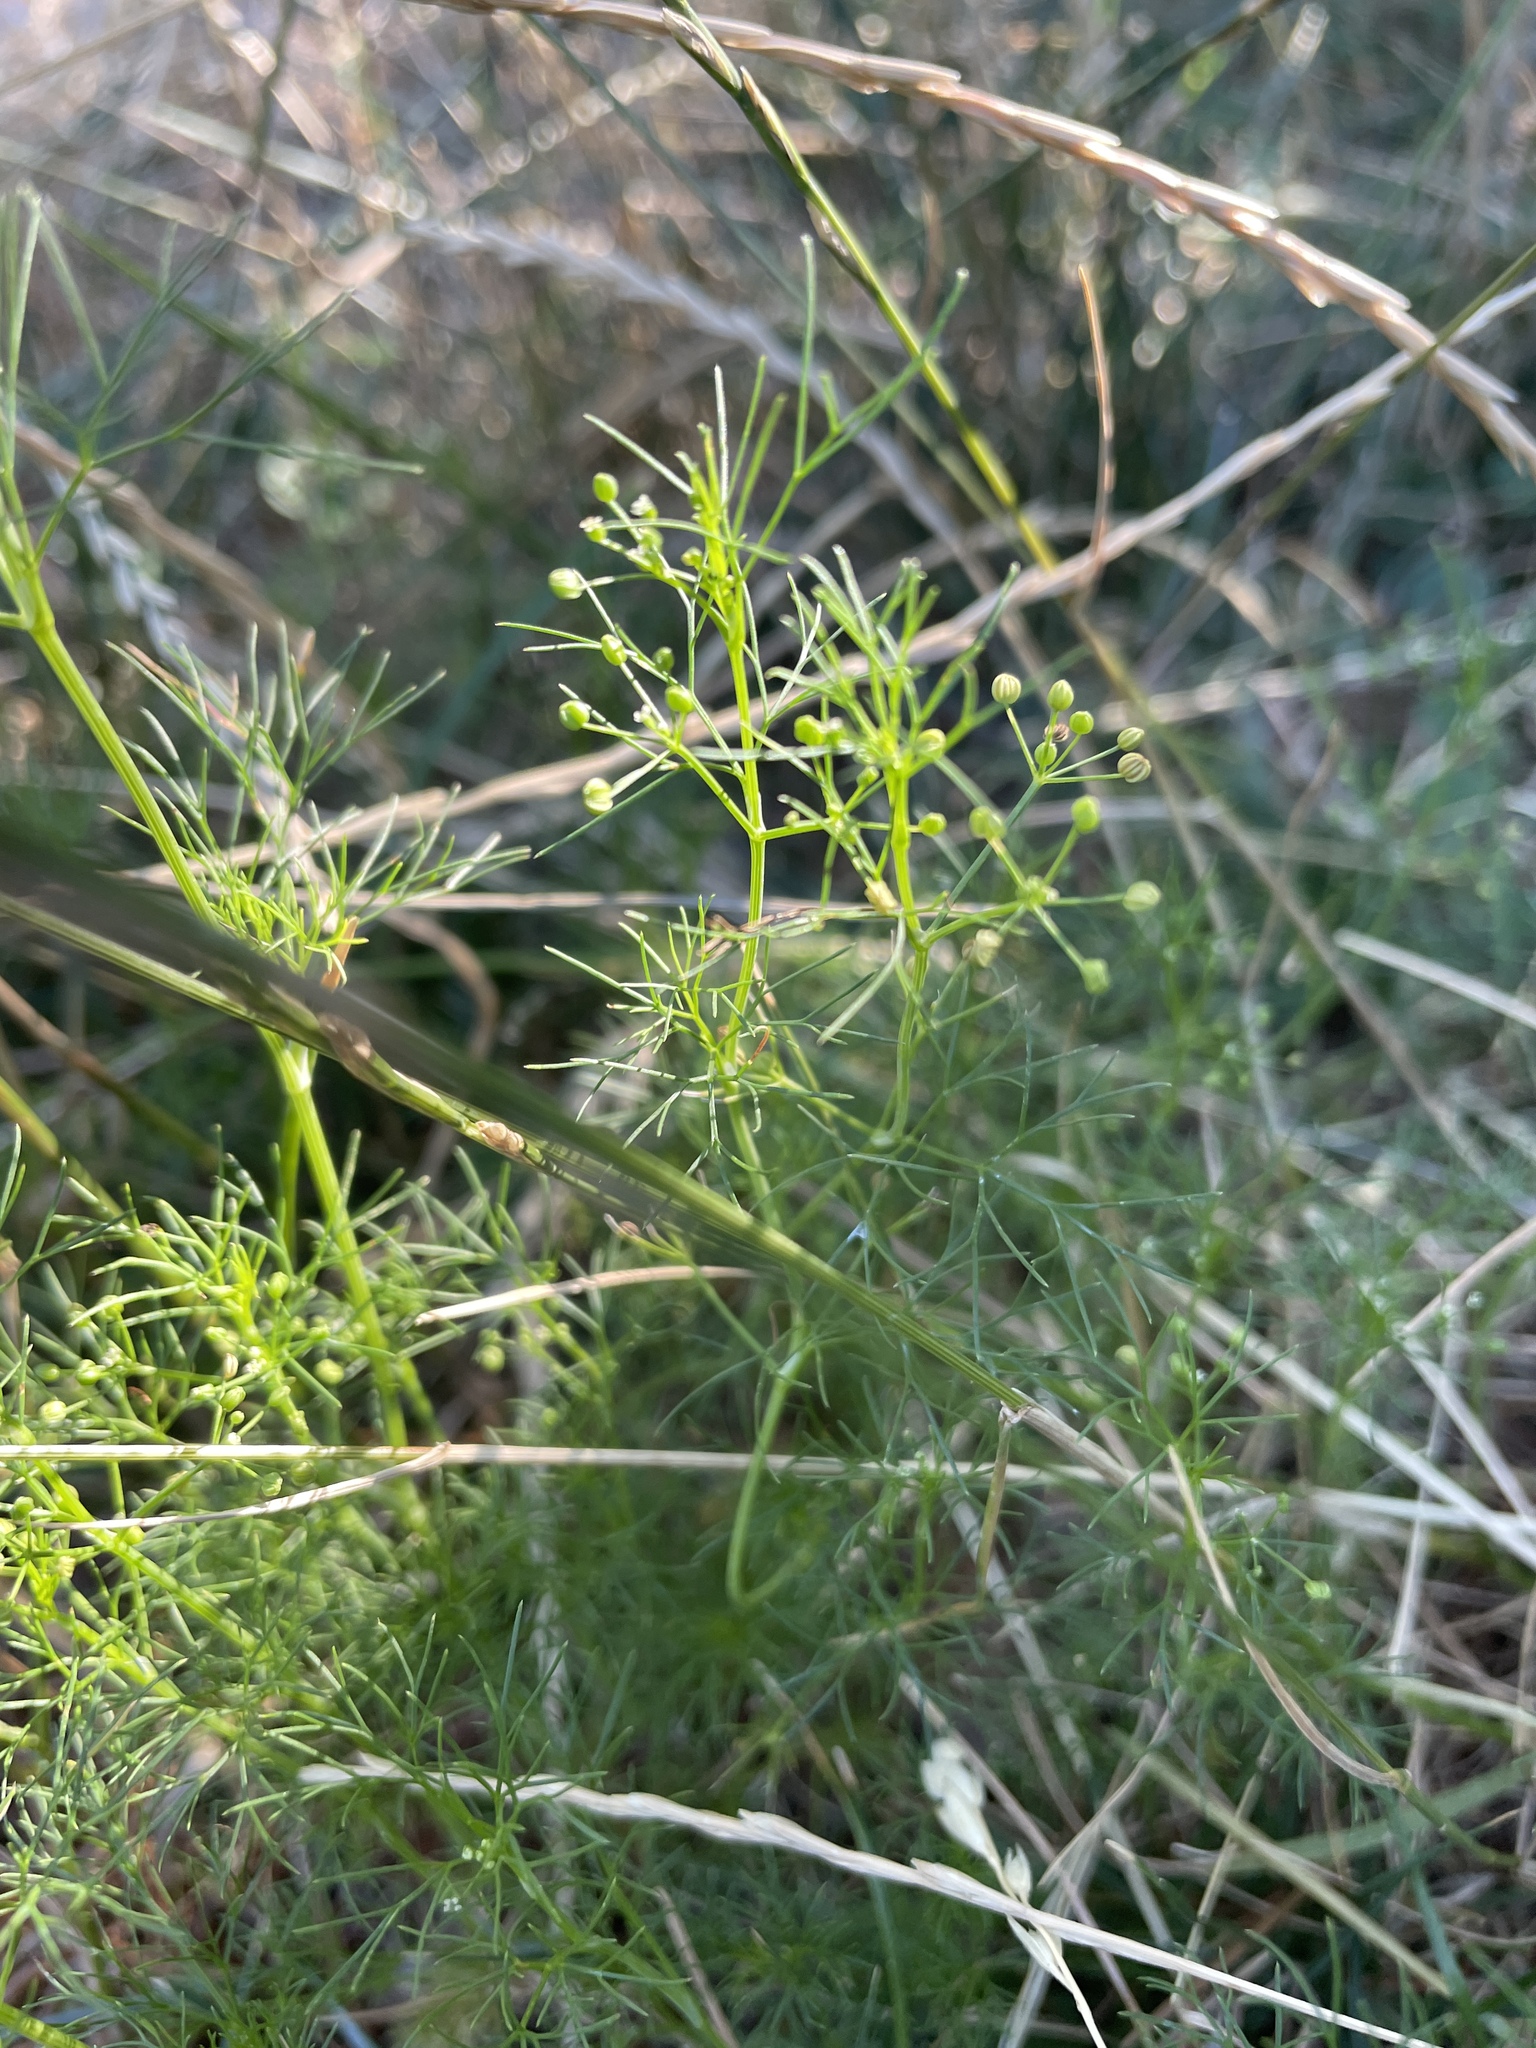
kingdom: Plantae
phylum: Tracheophyta
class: Magnoliopsida
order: Apiales
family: Apiaceae
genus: Cyclospermum
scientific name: Cyclospermum leptophyllum
